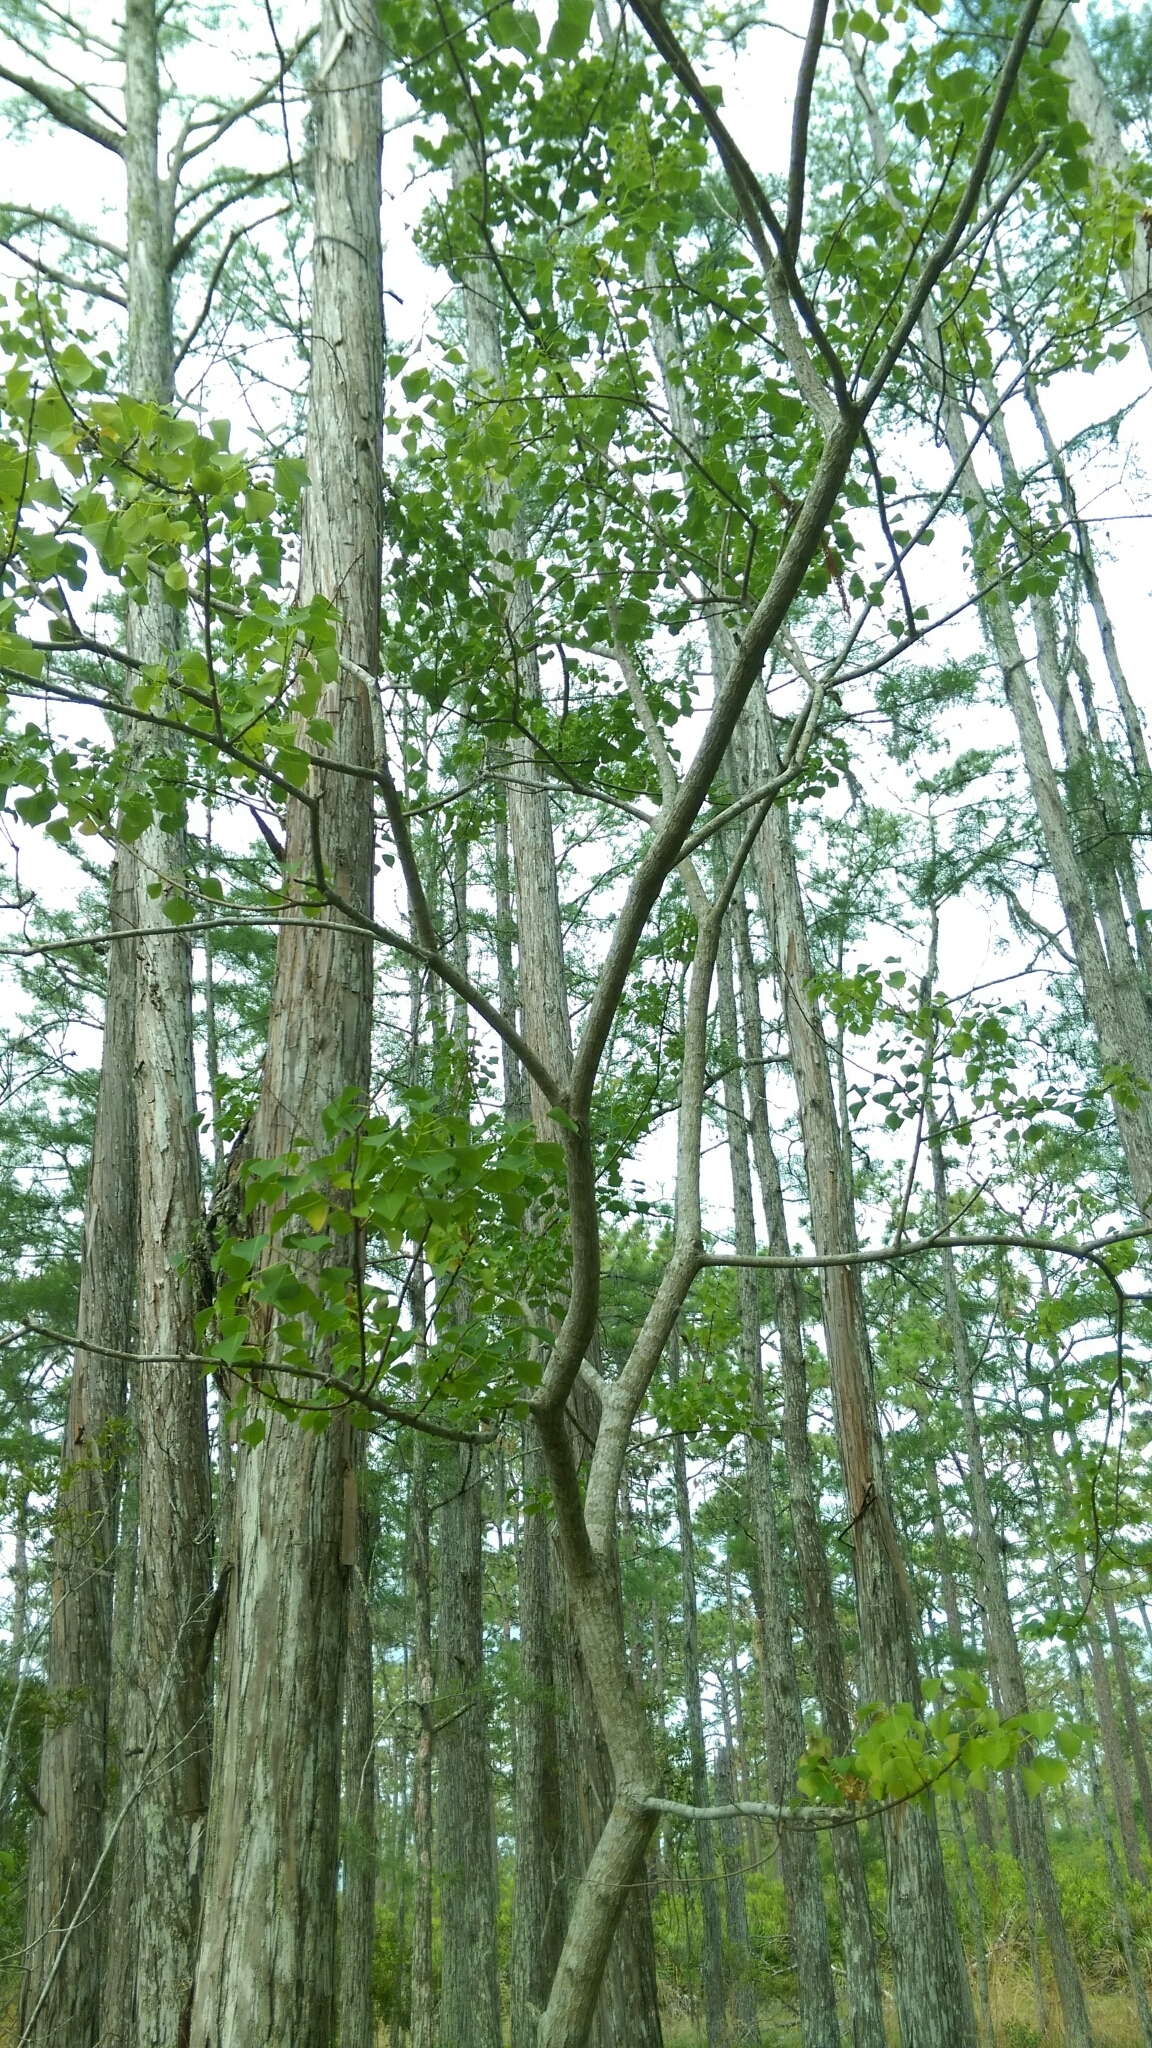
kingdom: Plantae
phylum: Tracheophyta
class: Magnoliopsida
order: Malpighiales
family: Euphorbiaceae
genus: Triadica
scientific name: Triadica sebifera
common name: Chinese tallow
